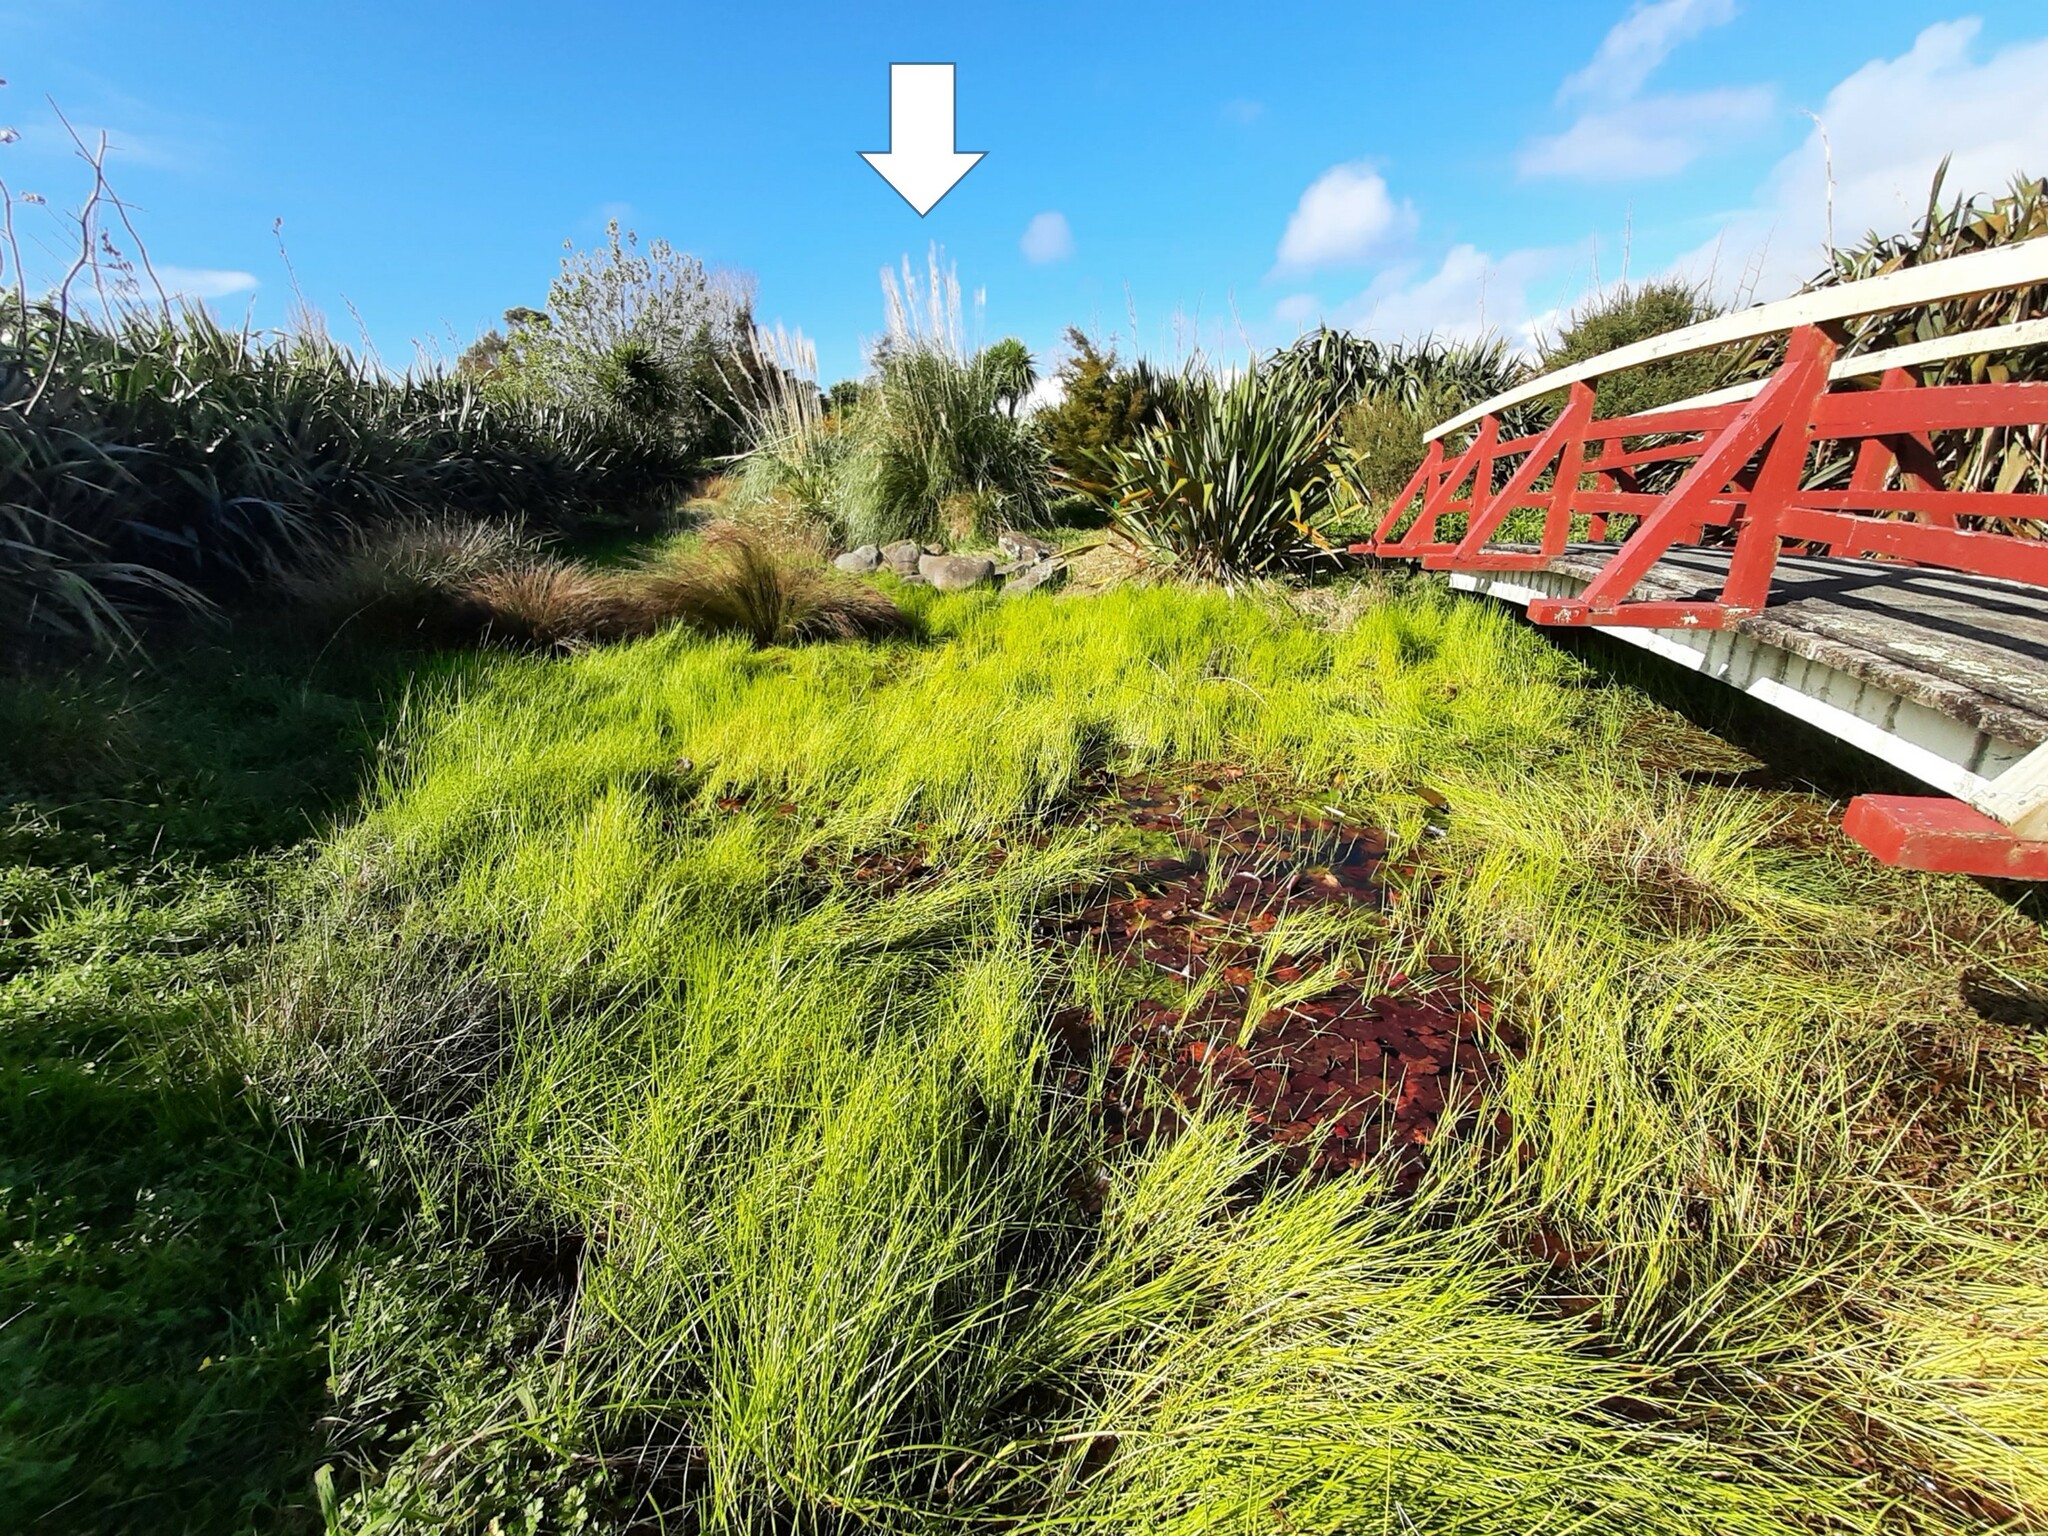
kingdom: Plantae
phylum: Tracheophyta
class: Liliopsida
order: Poales
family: Poaceae
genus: Cortaderia
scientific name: Cortaderia selloana
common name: Uruguayan pampas grass
